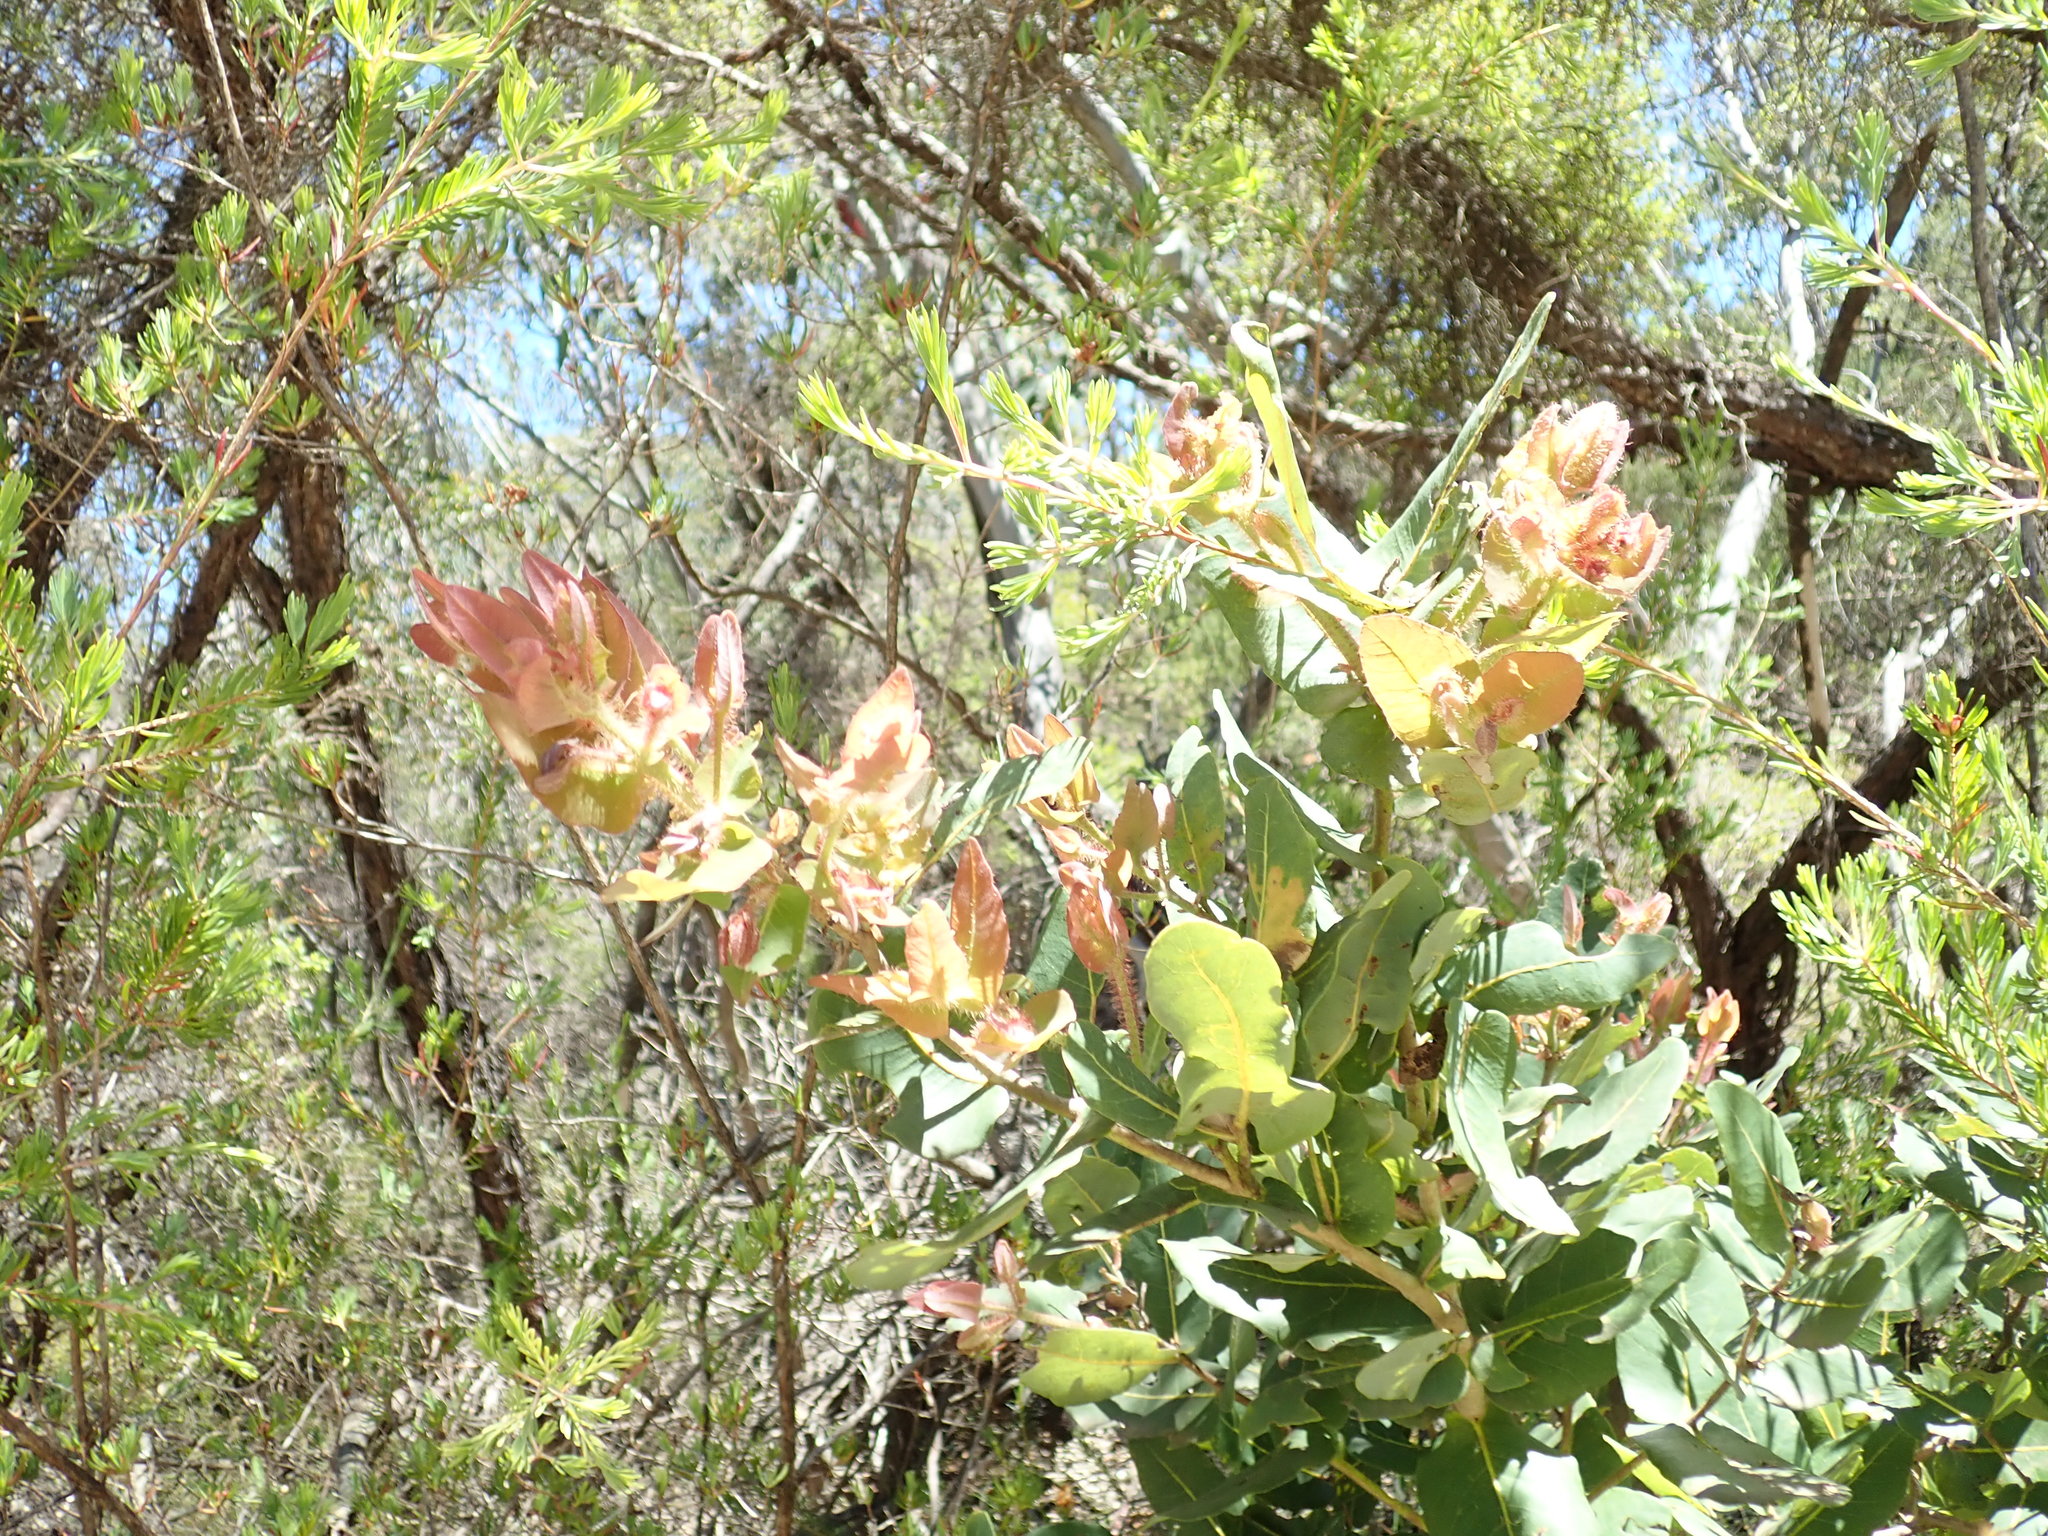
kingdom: Plantae
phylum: Tracheophyta
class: Magnoliopsida
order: Myrtales
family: Myrtaceae
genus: Angophora
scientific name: Angophora hispida
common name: Dwarf-apple
